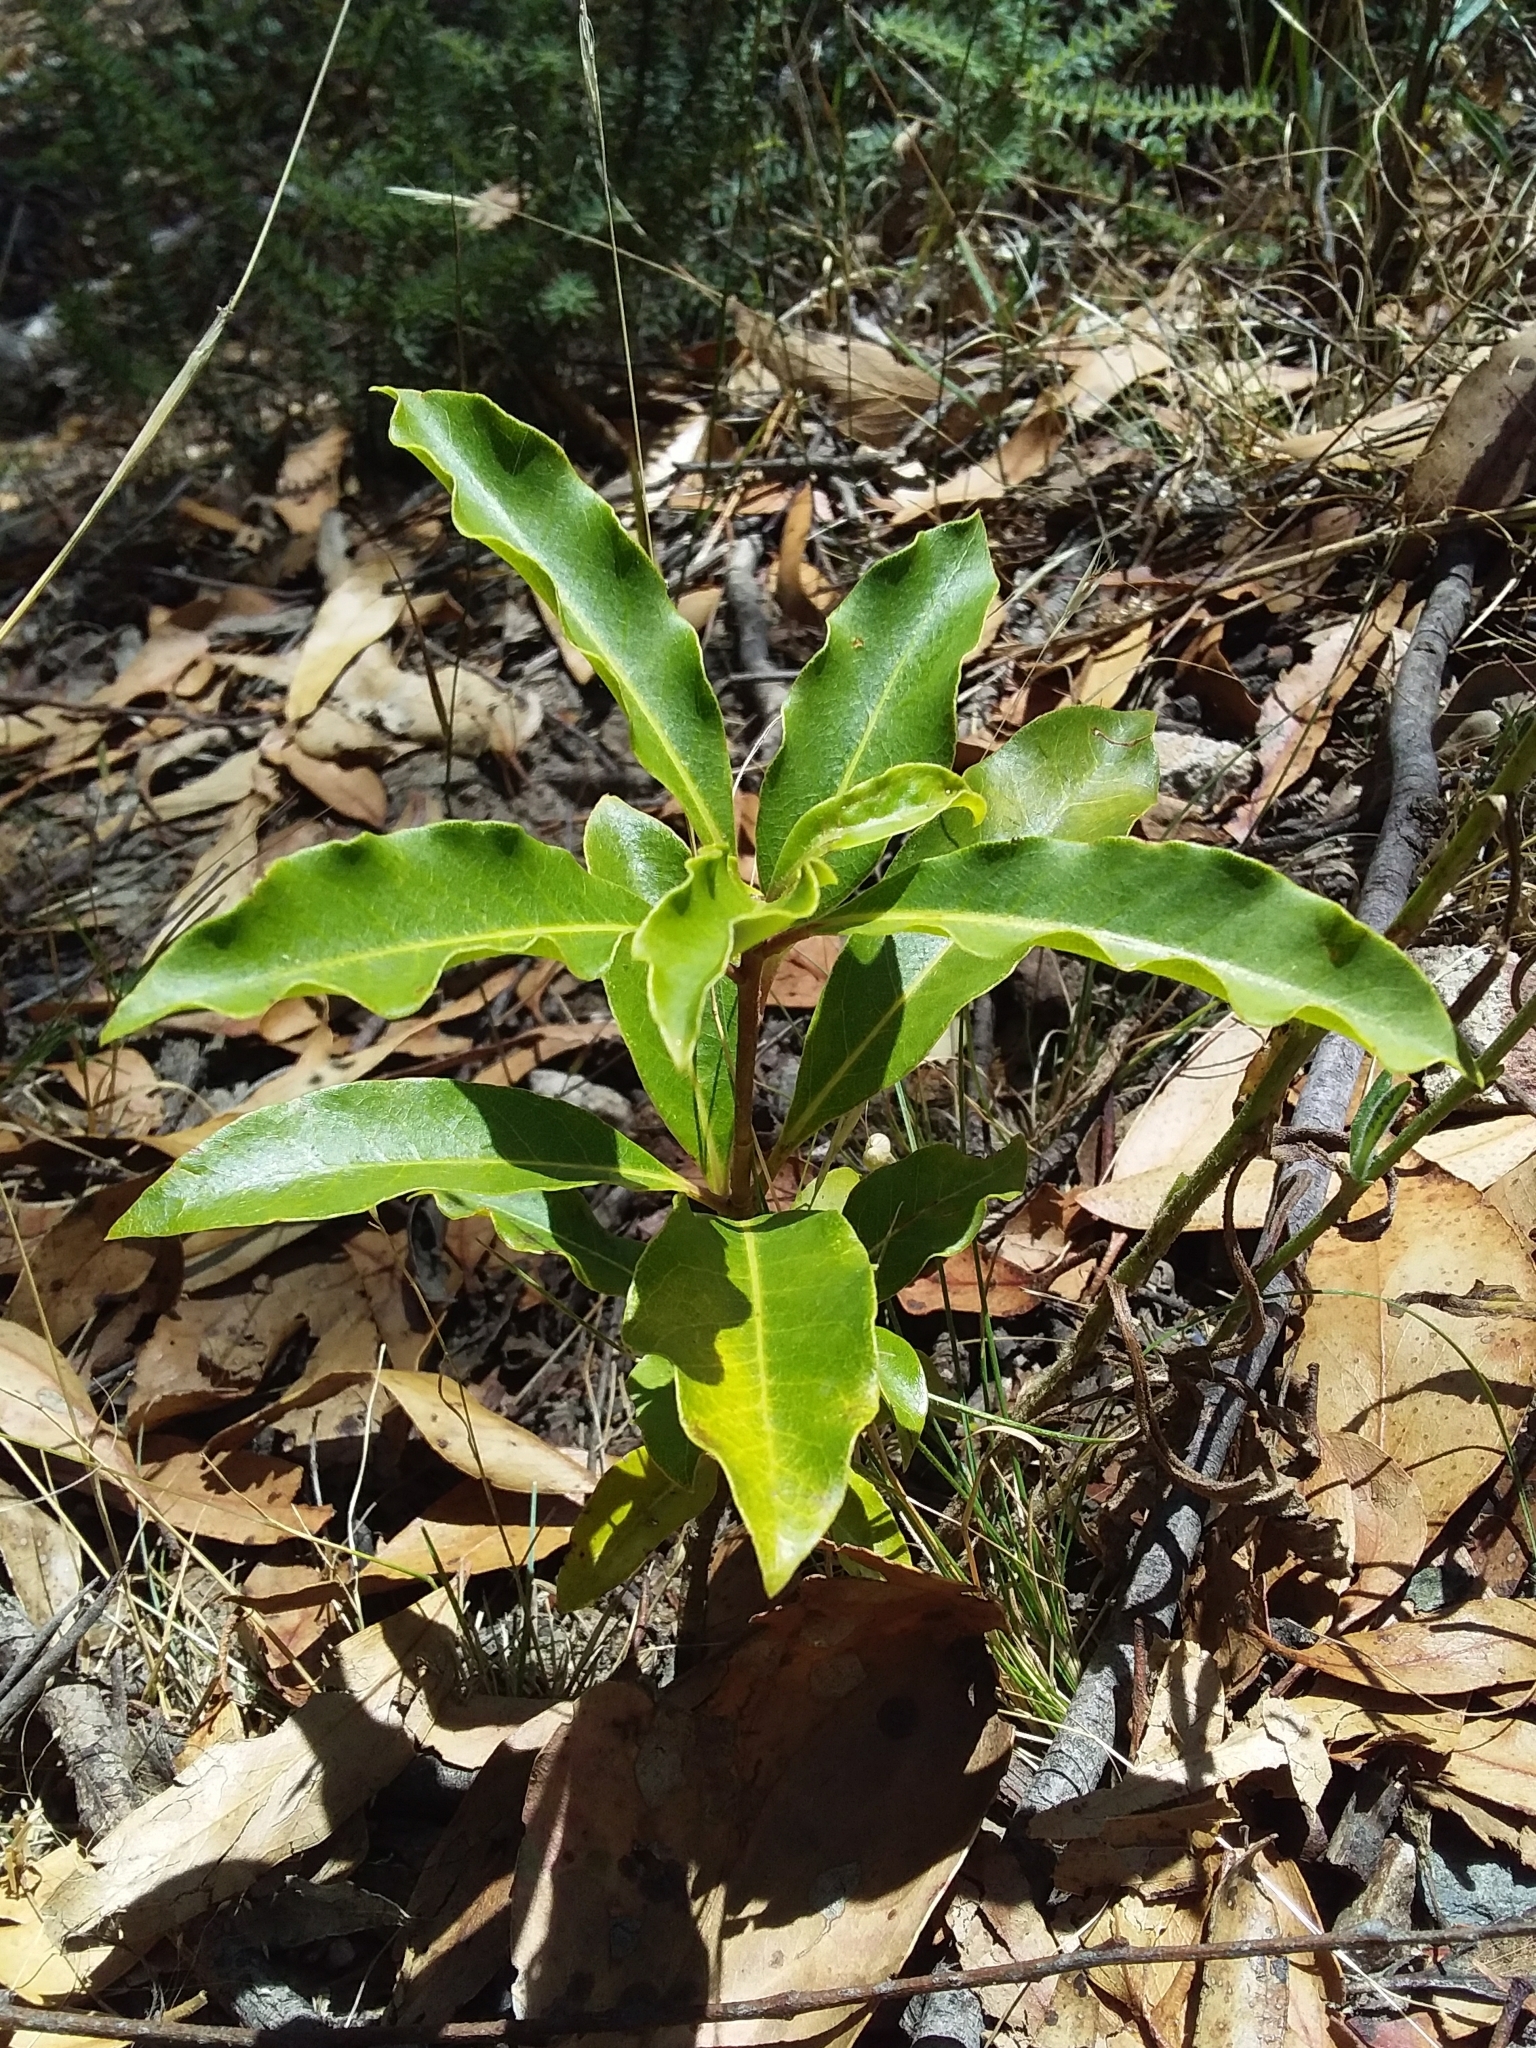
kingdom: Plantae
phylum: Tracheophyta
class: Magnoliopsida
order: Apiales
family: Pittosporaceae
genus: Pittosporum
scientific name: Pittosporum undulatum
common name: Australian cheesewood
